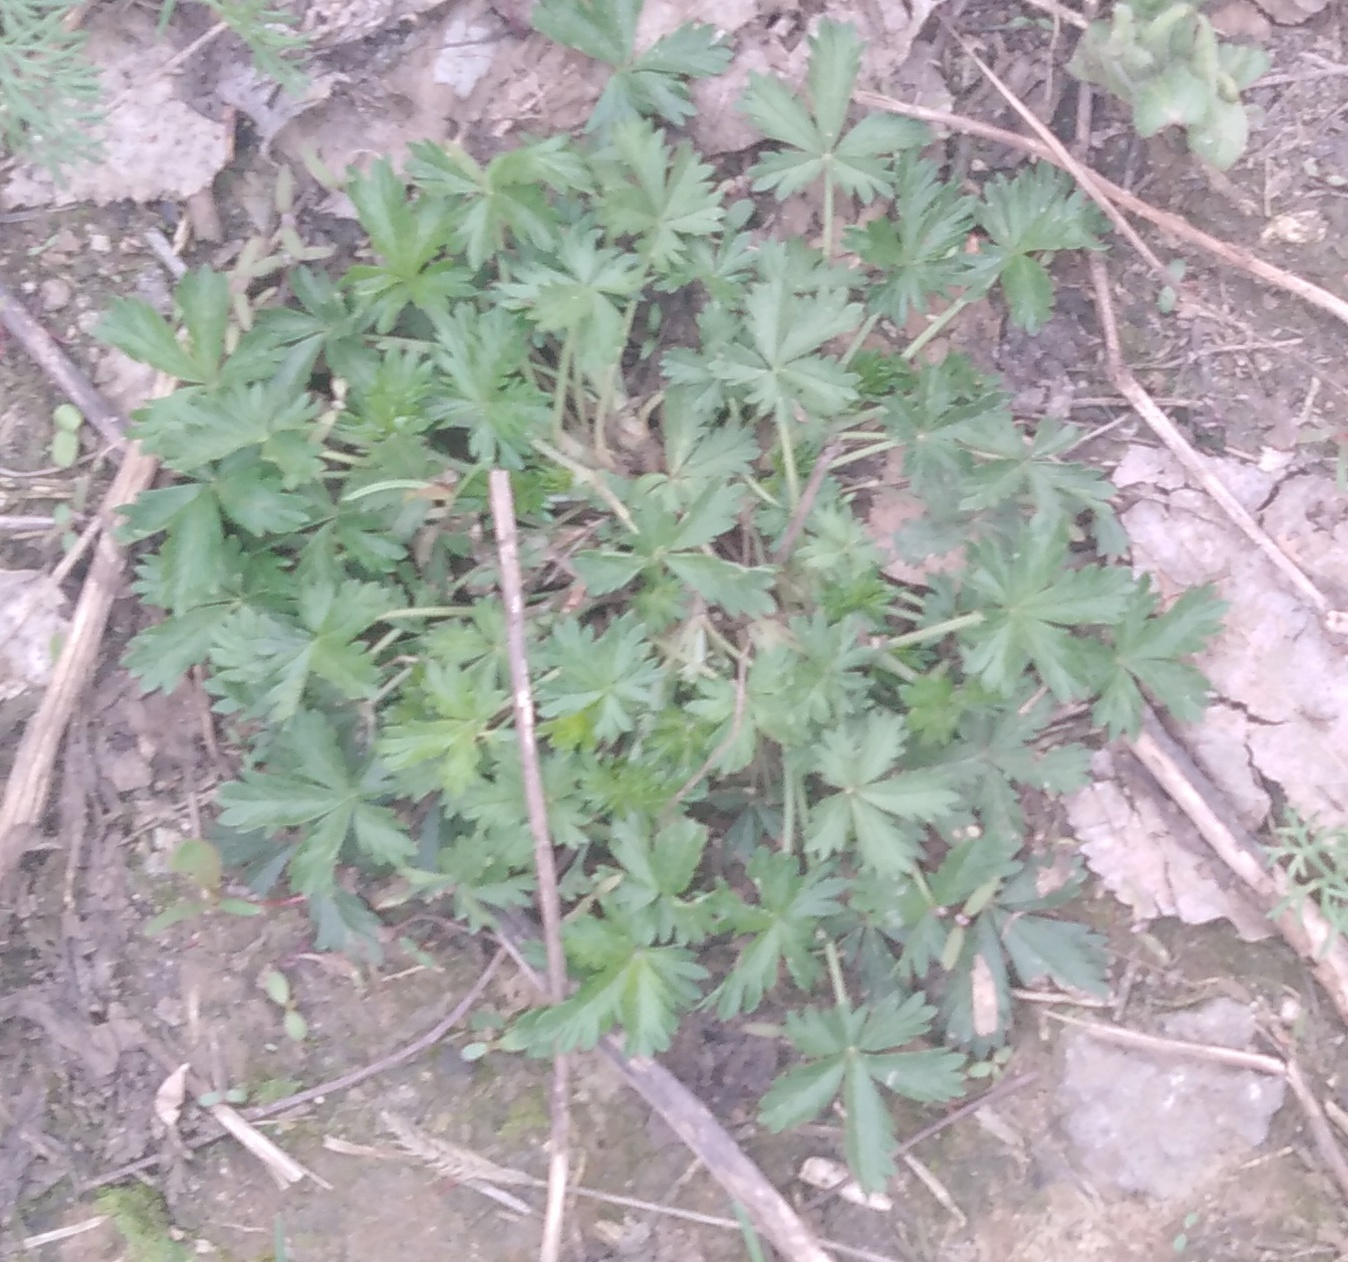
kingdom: Plantae
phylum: Tracheophyta
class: Magnoliopsida
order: Rosales
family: Rosaceae
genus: Potentilla
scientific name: Potentilla argentea
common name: Hoary cinquefoil
